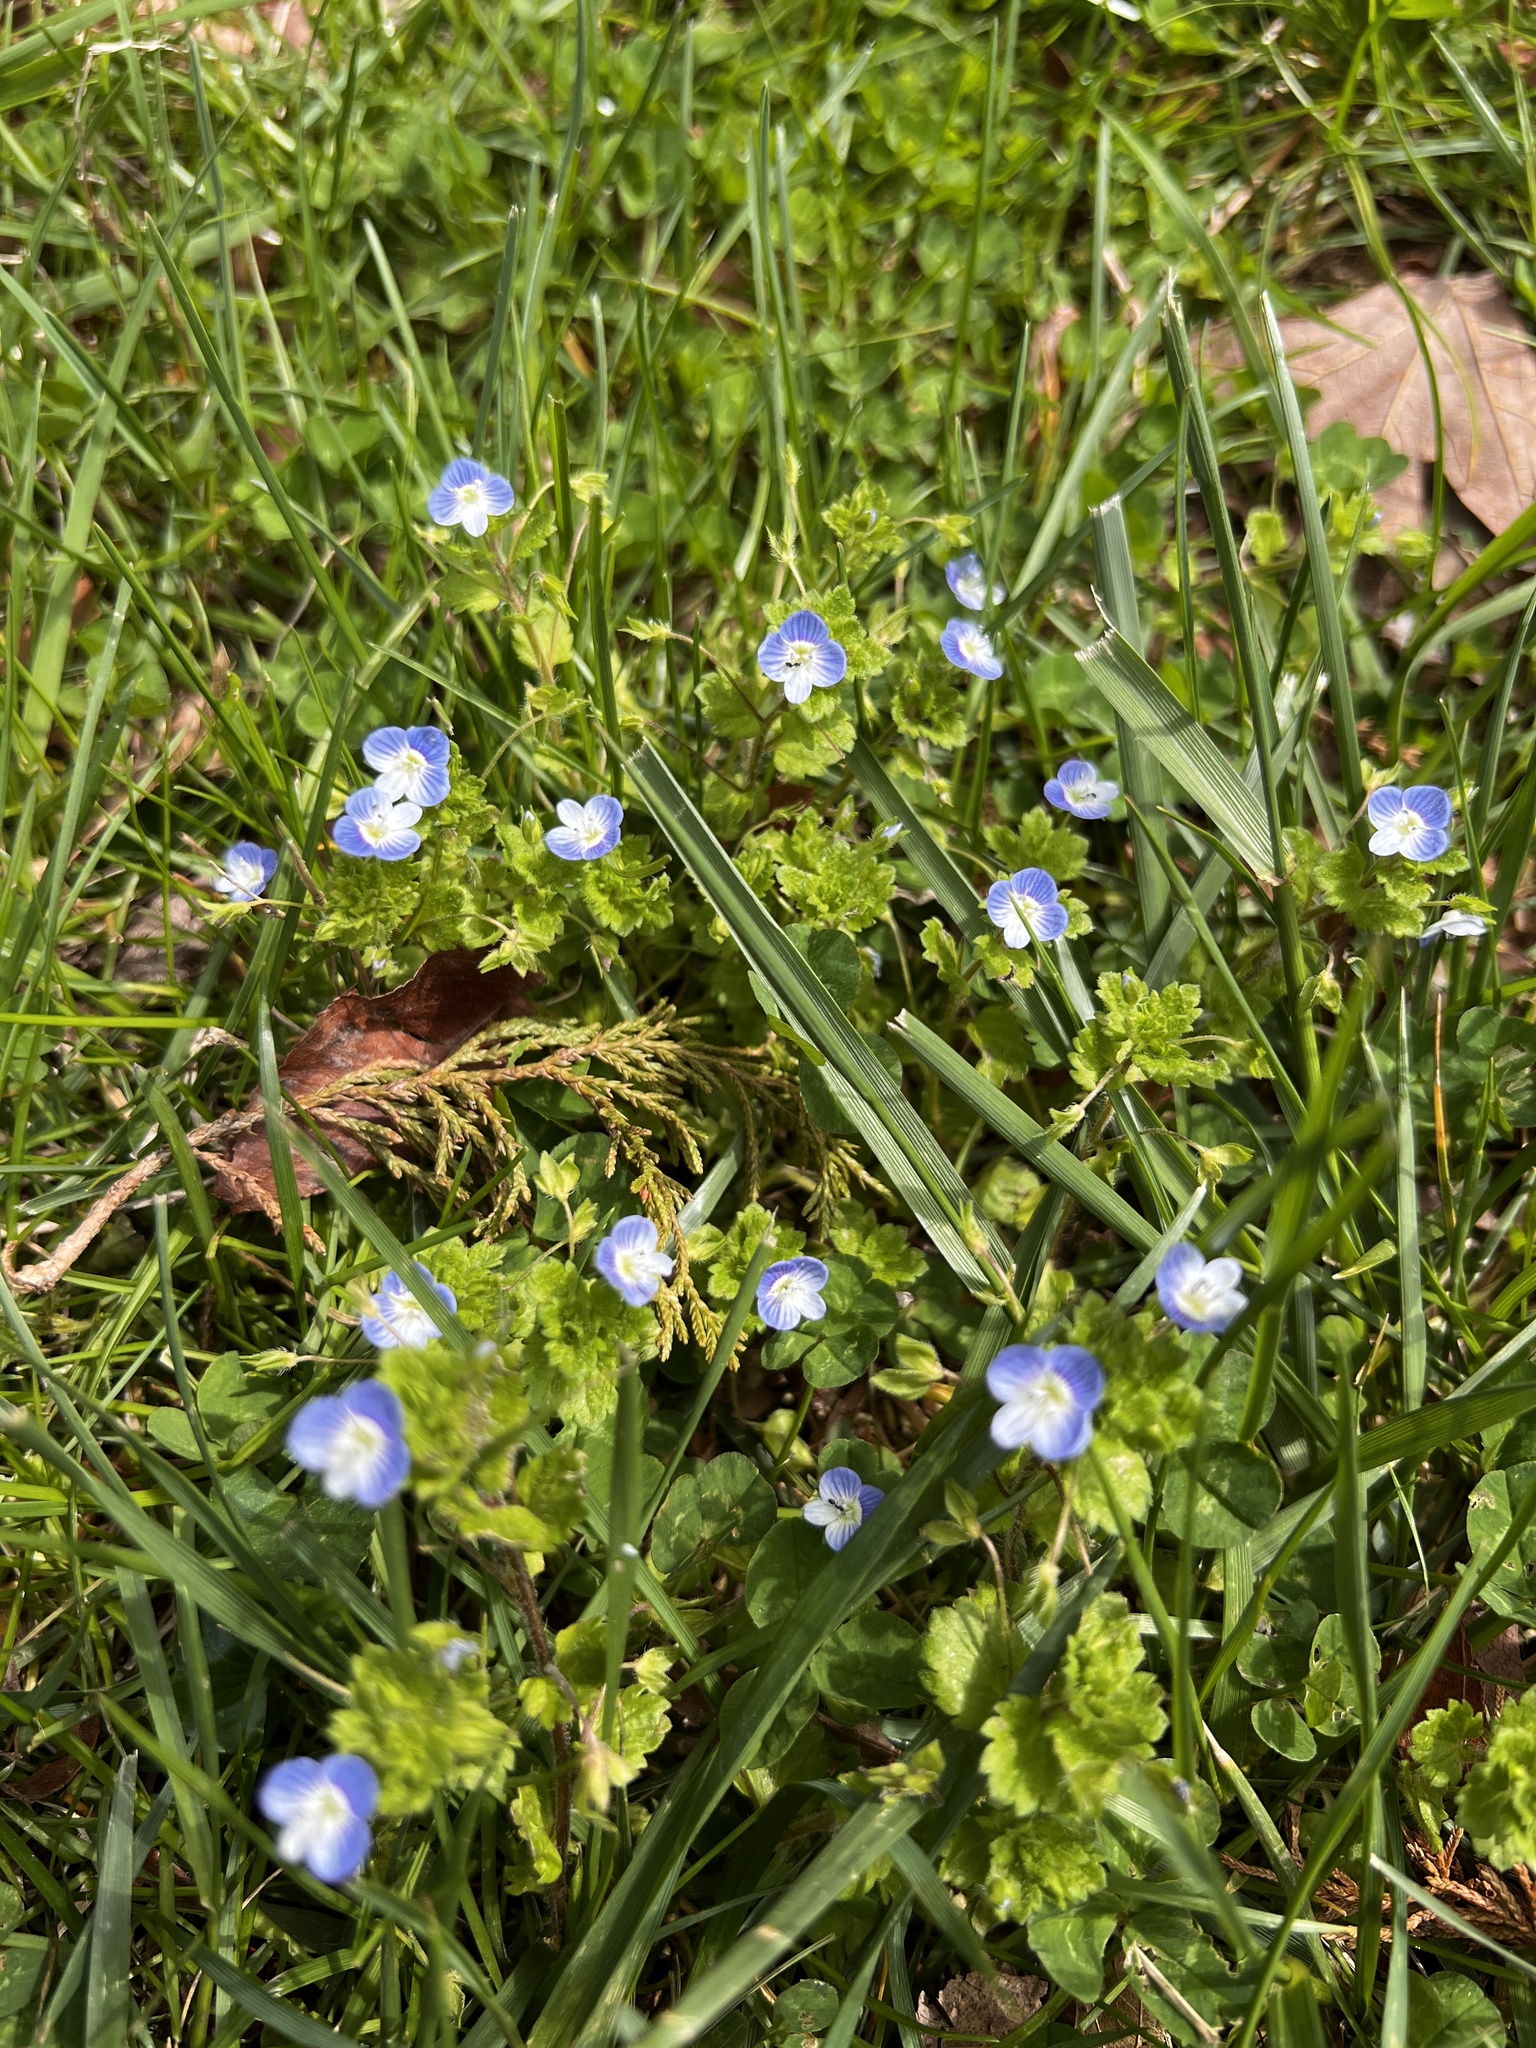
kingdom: Plantae
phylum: Tracheophyta
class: Magnoliopsida
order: Lamiales
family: Plantaginaceae
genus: Veronica
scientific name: Veronica persica
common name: Common field-speedwell
